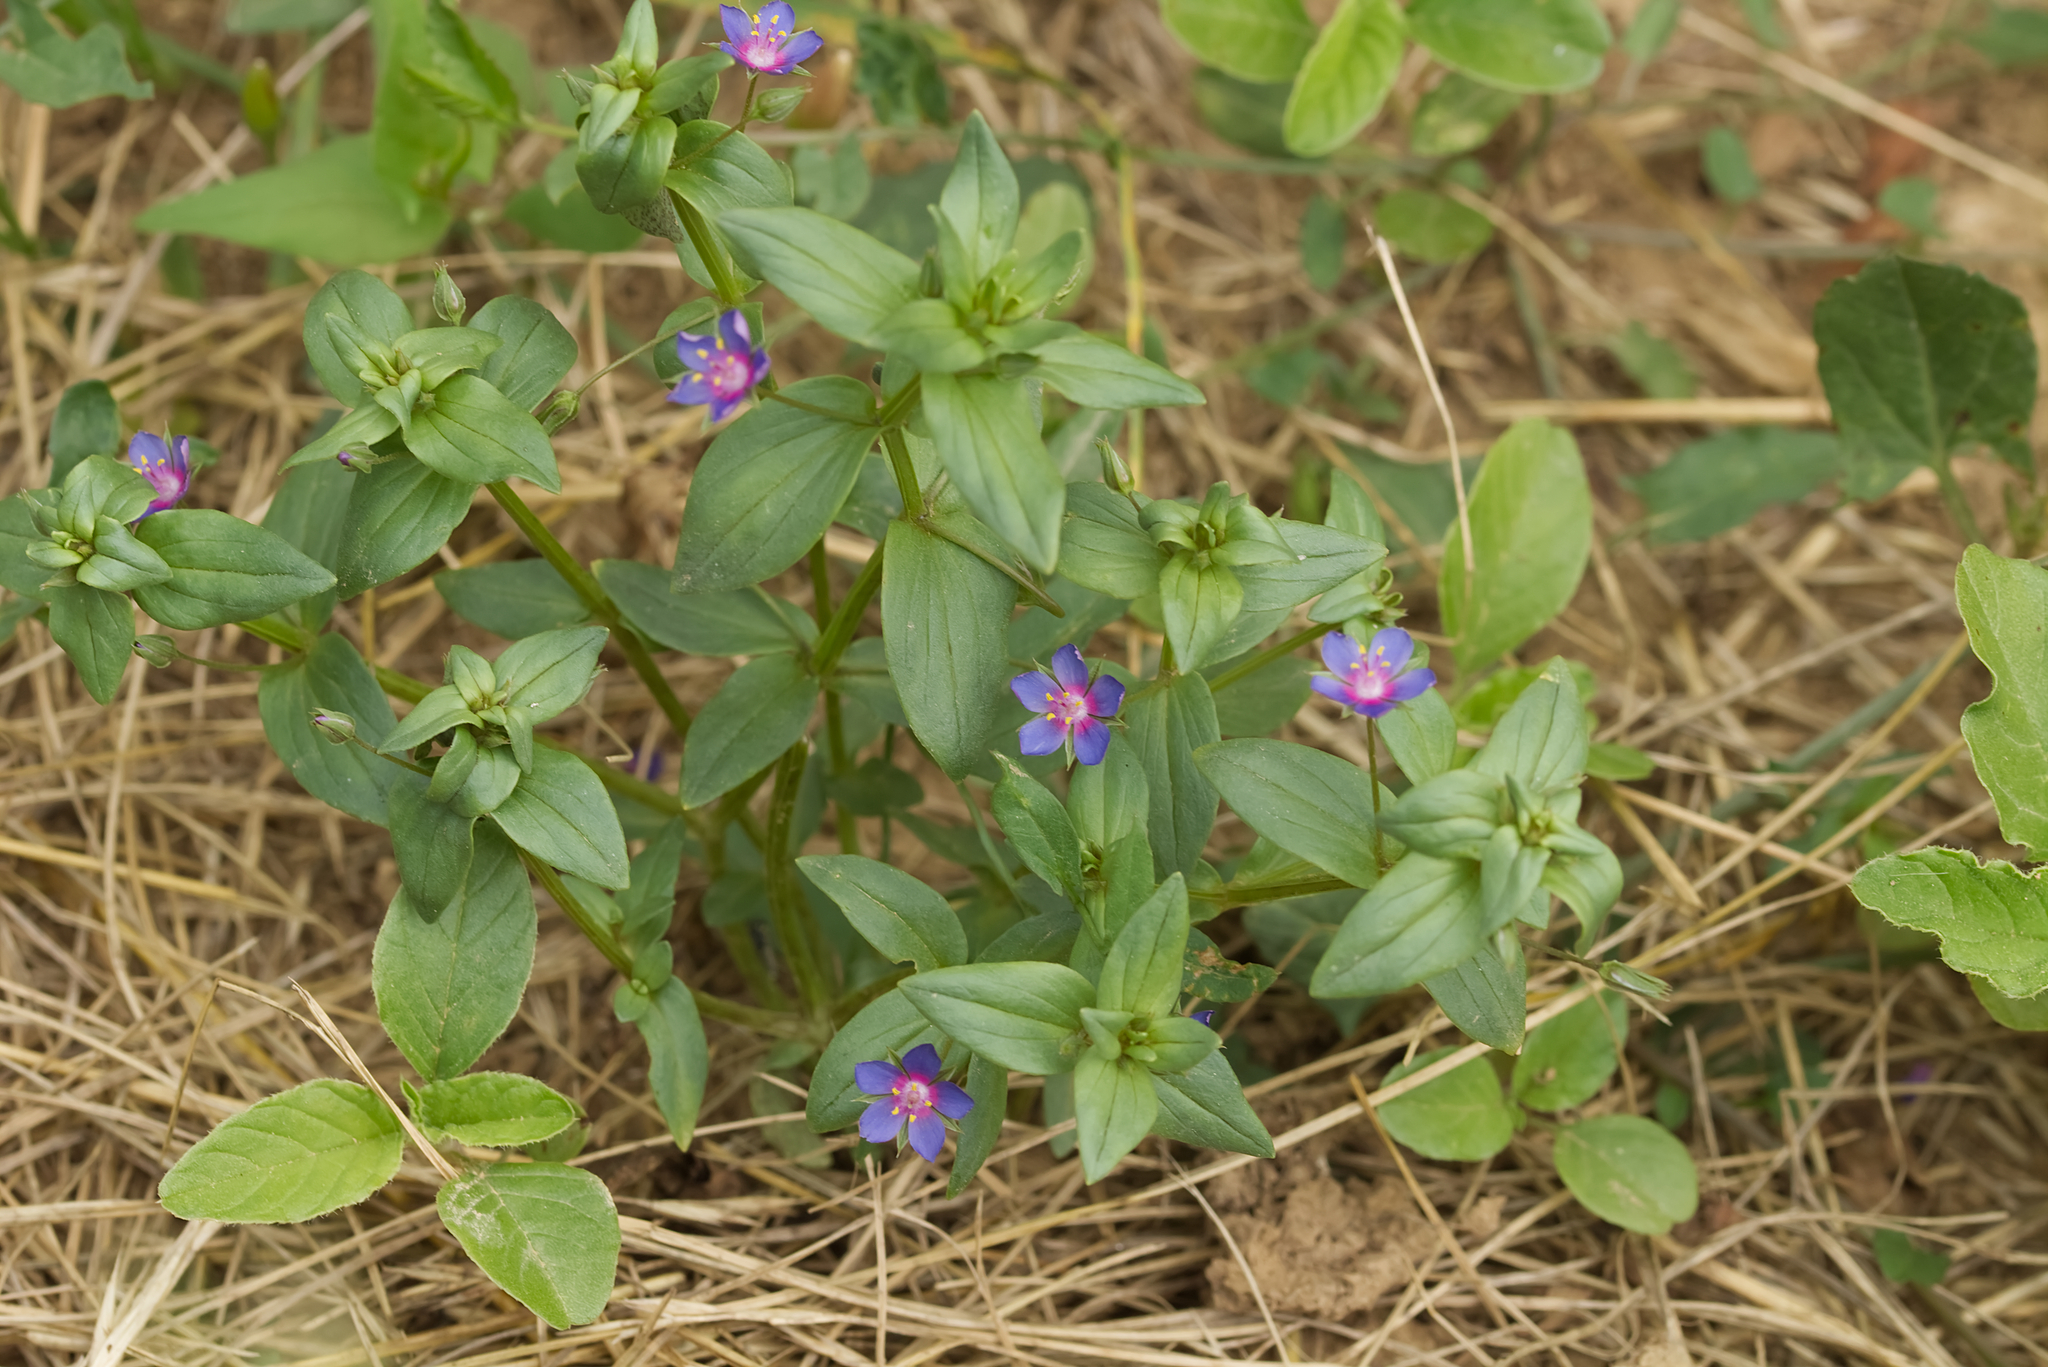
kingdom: Plantae
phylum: Tracheophyta
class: Magnoliopsida
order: Ericales
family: Primulaceae
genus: Lysimachia
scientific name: Lysimachia foemina
